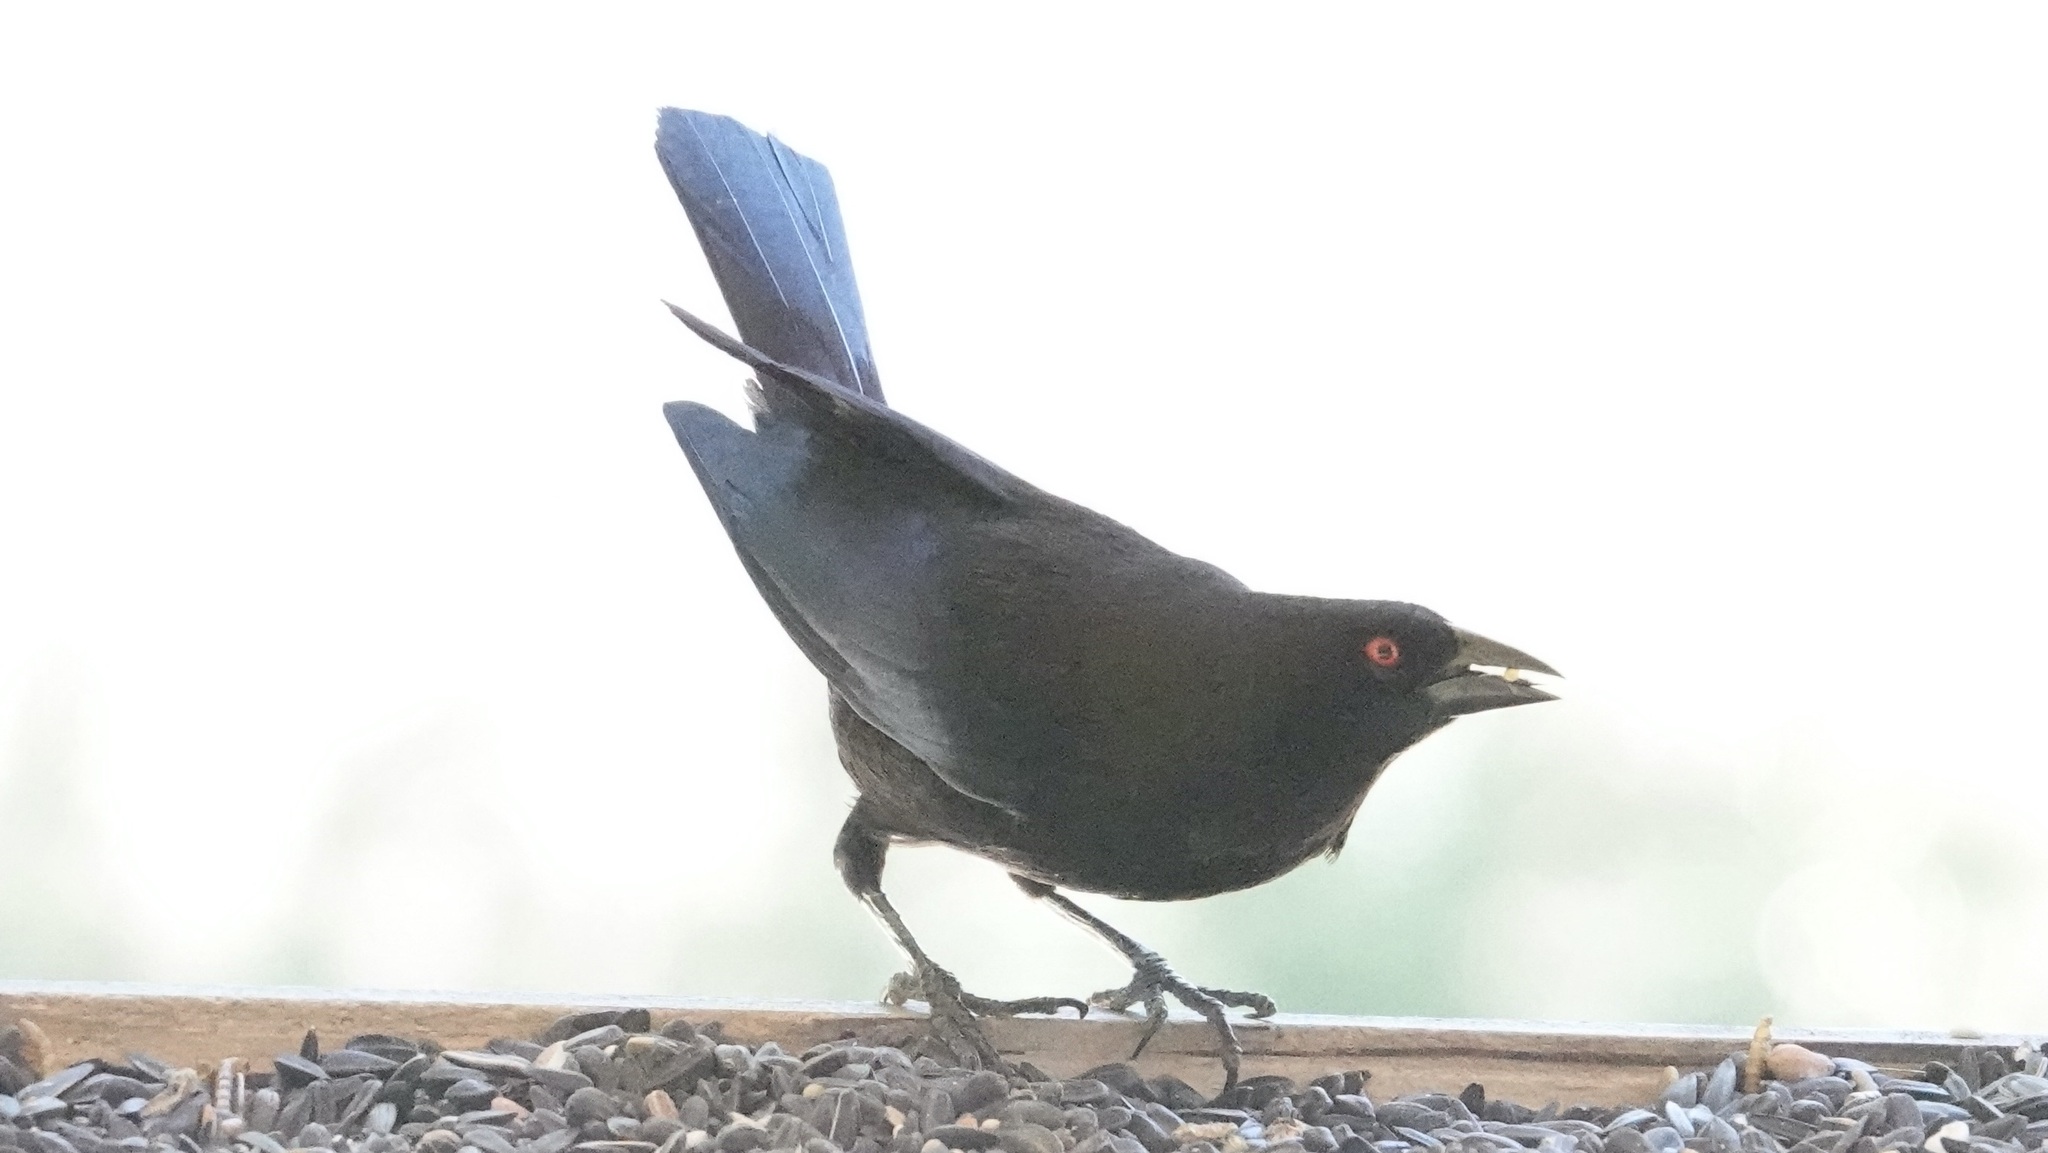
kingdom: Animalia
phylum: Chordata
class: Aves
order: Passeriformes
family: Icteridae
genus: Molothrus
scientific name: Molothrus aeneus
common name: Bronzed cowbird
